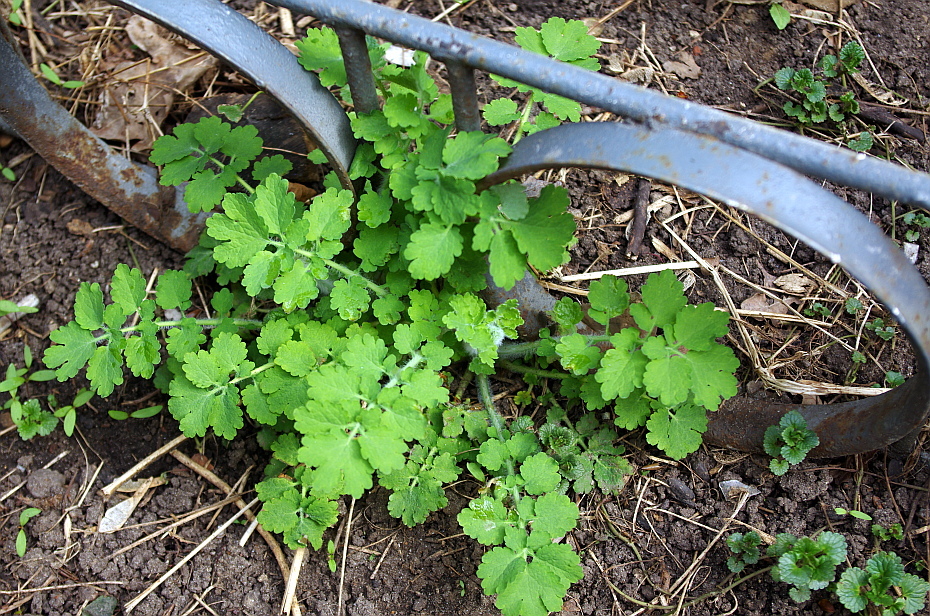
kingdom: Plantae
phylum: Tracheophyta
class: Magnoliopsida
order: Ranunculales
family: Papaveraceae
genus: Chelidonium
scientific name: Chelidonium majus
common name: Greater celandine
